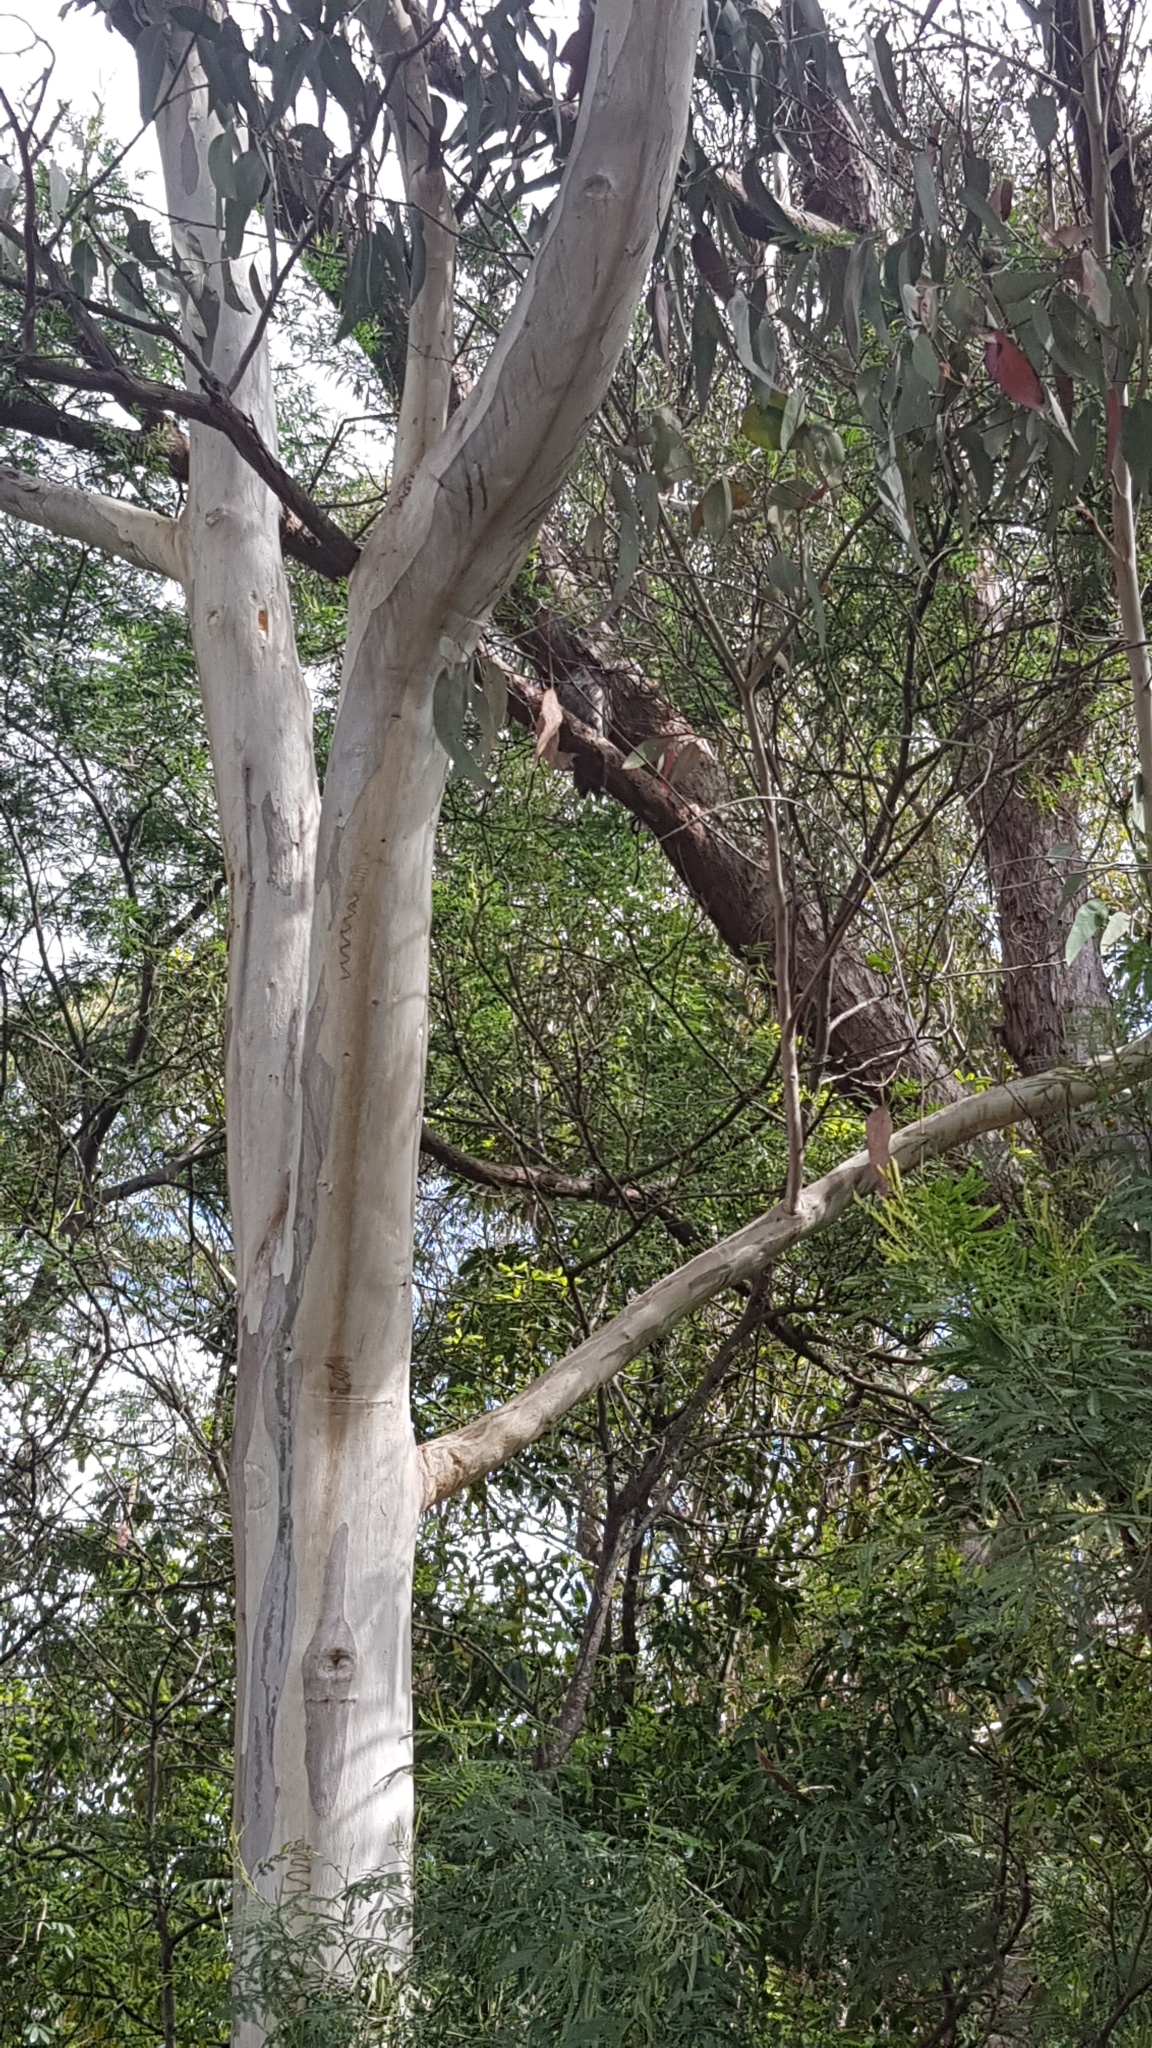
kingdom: Animalia
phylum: Chordata
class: Aves
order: Caprimulgiformes
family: Podargidae
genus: Podargus
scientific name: Podargus strigoides
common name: Tawny frogmouth
